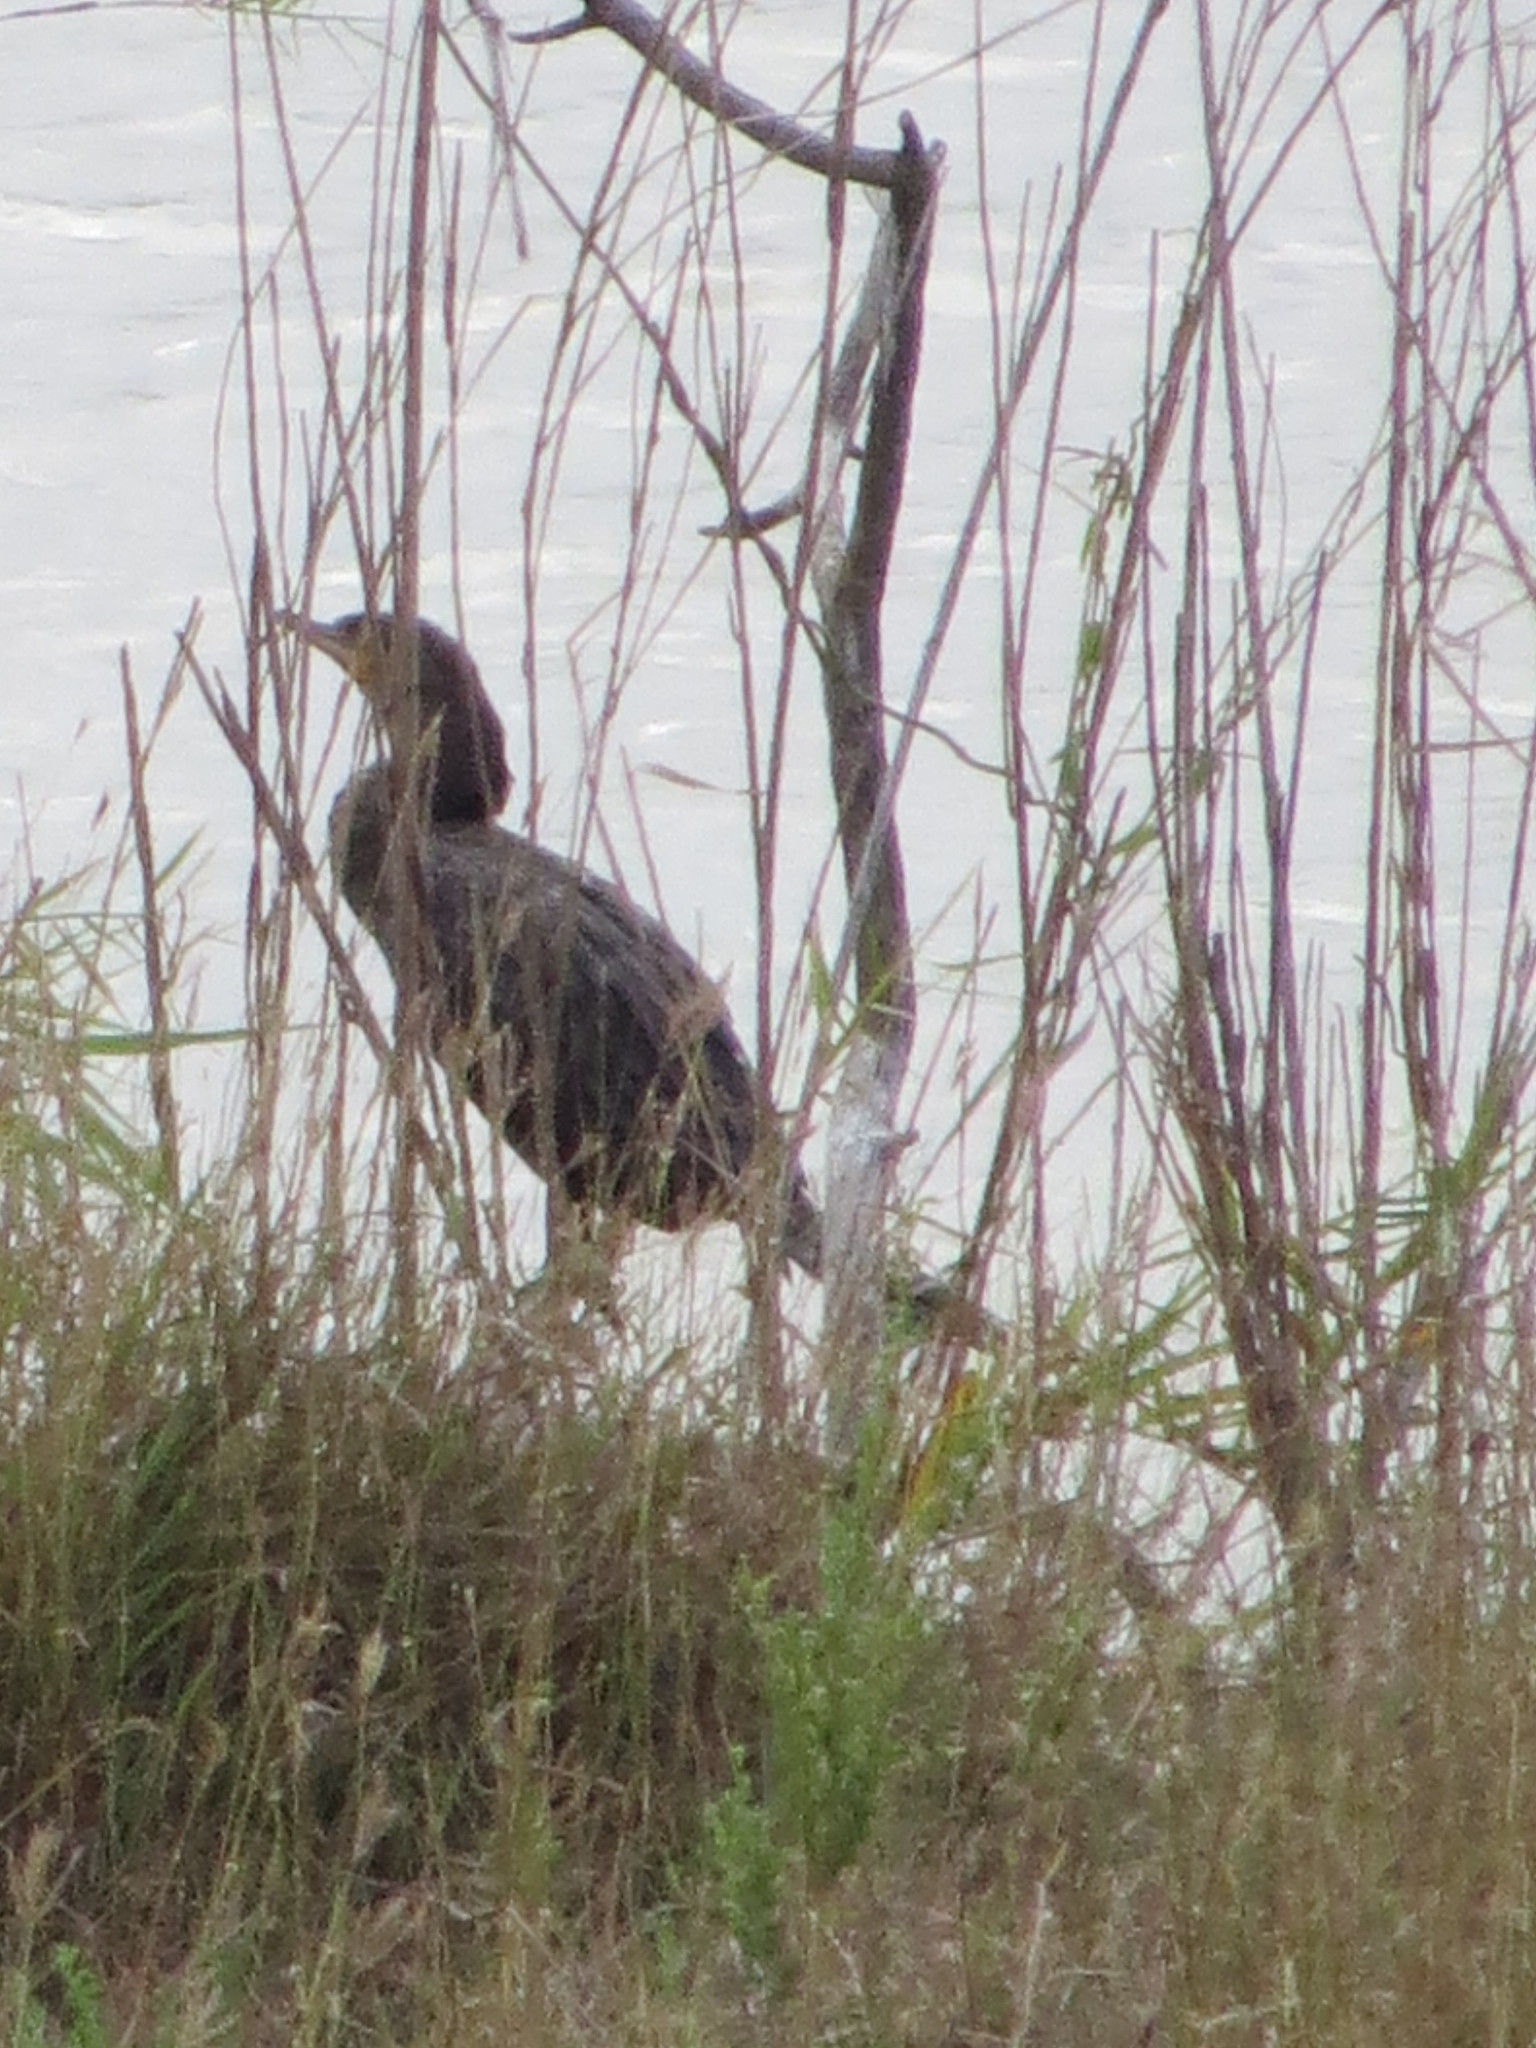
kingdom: Animalia
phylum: Chordata
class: Aves
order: Suliformes
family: Phalacrocoracidae
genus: Phalacrocorax
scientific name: Phalacrocorax brasilianus
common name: Neotropic cormorant
